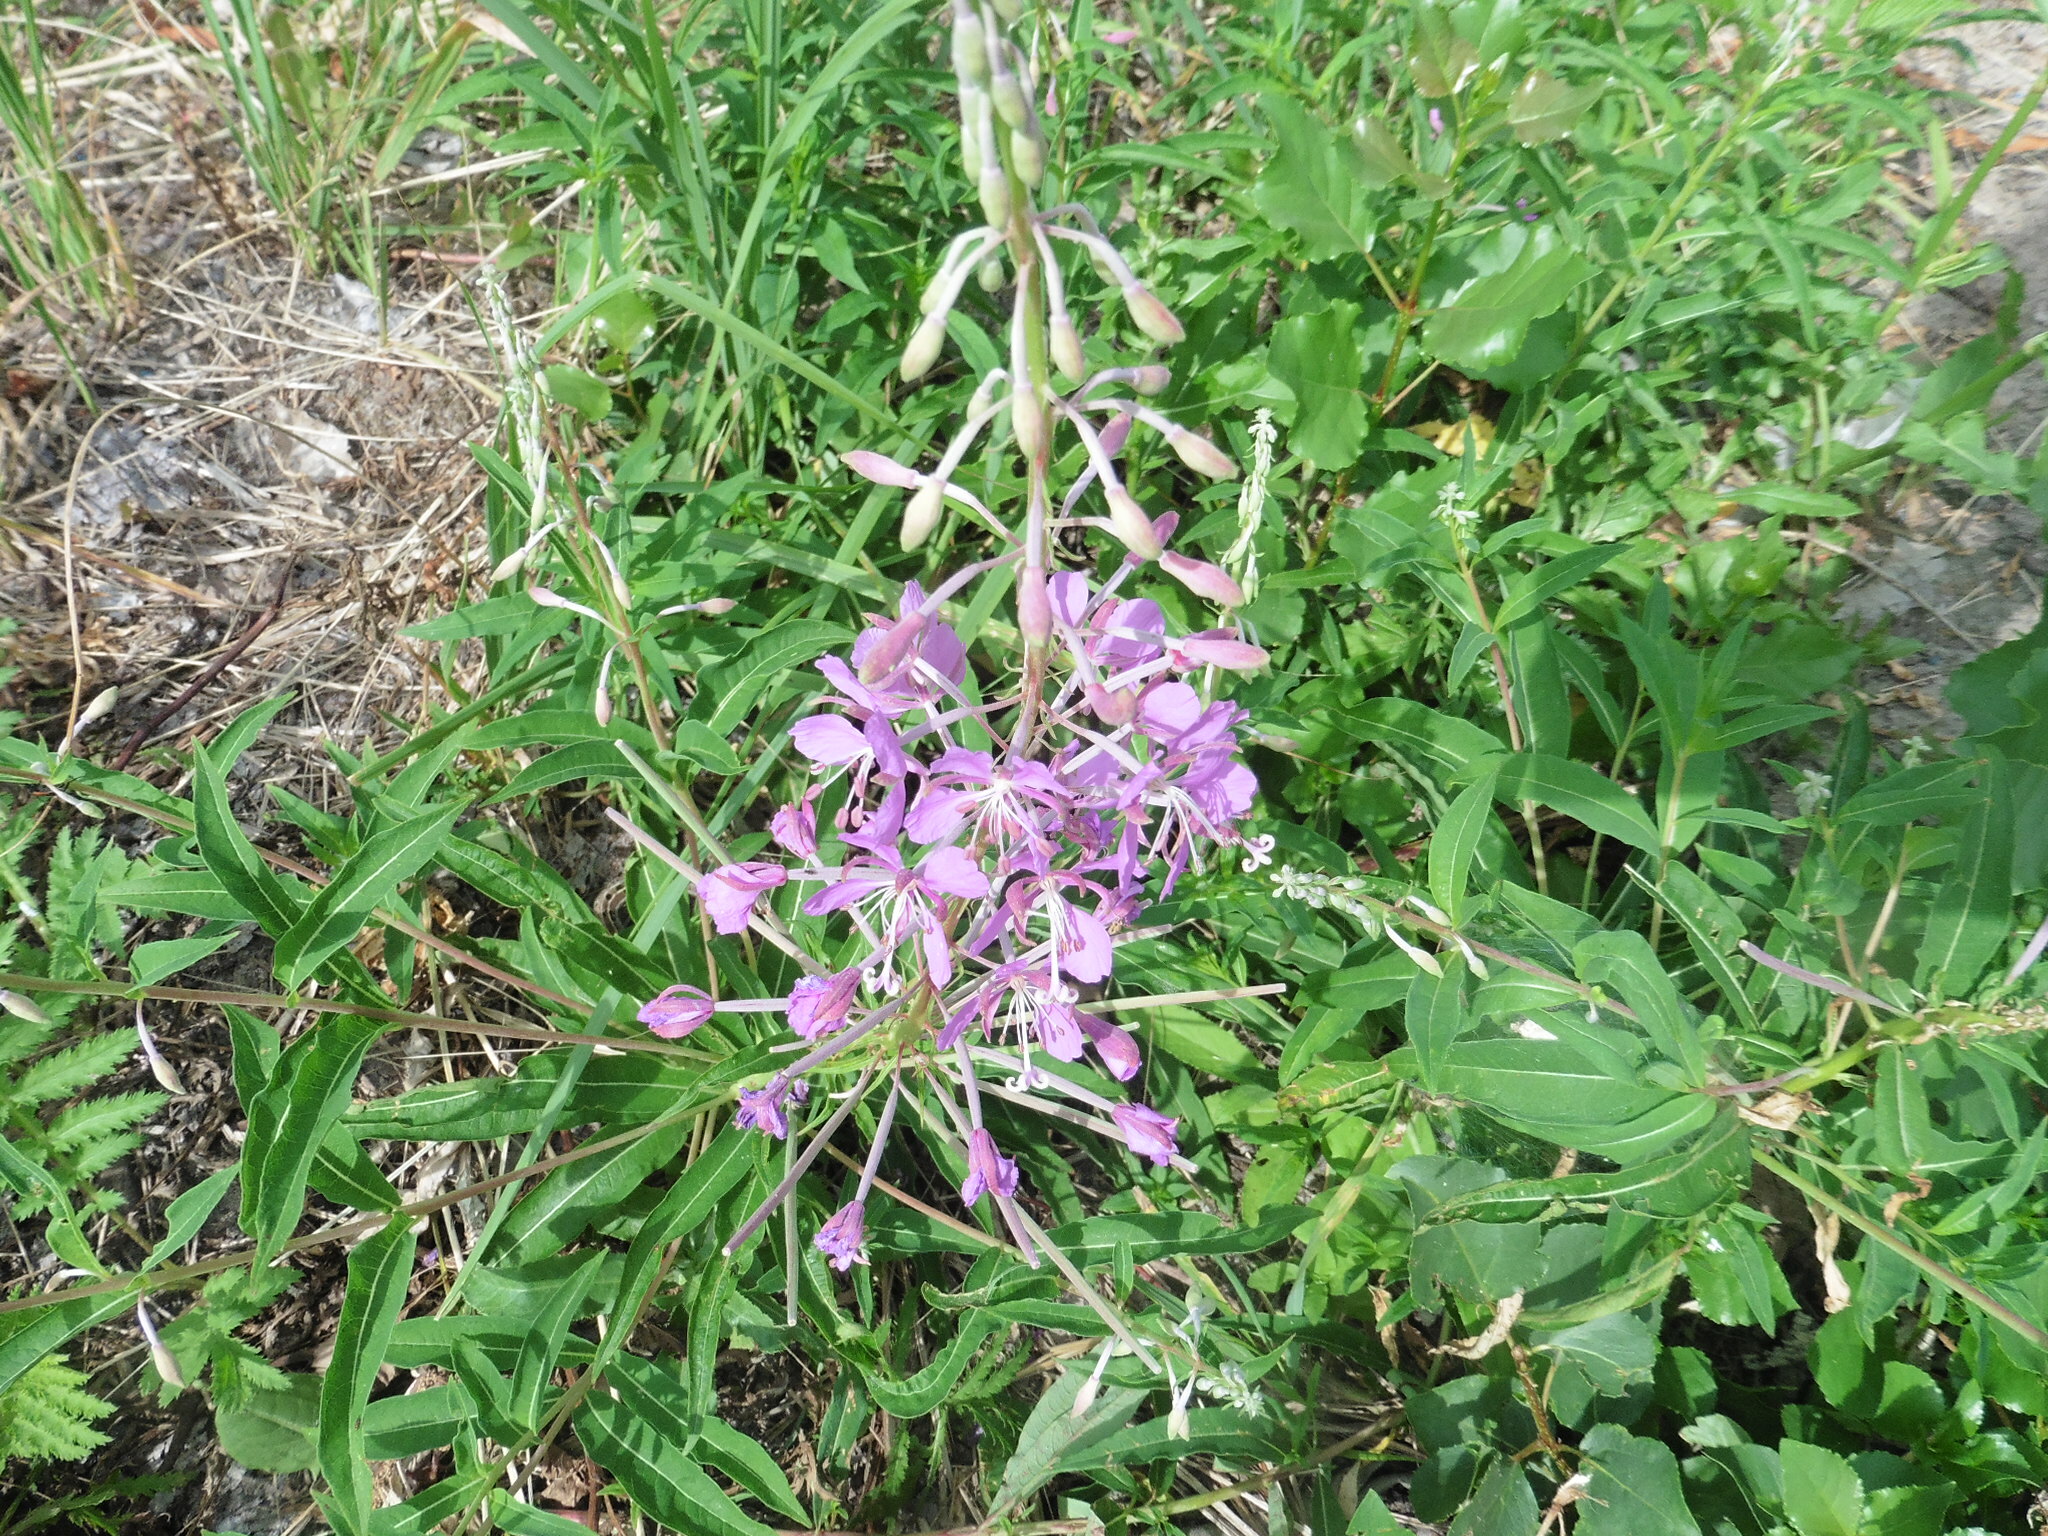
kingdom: Plantae
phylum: Tracheophyta
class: Magnoliopsida
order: Myrtales
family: Onagraceae
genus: Chamaenerion
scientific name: Chamaenerion angustifolium
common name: Fireweed
